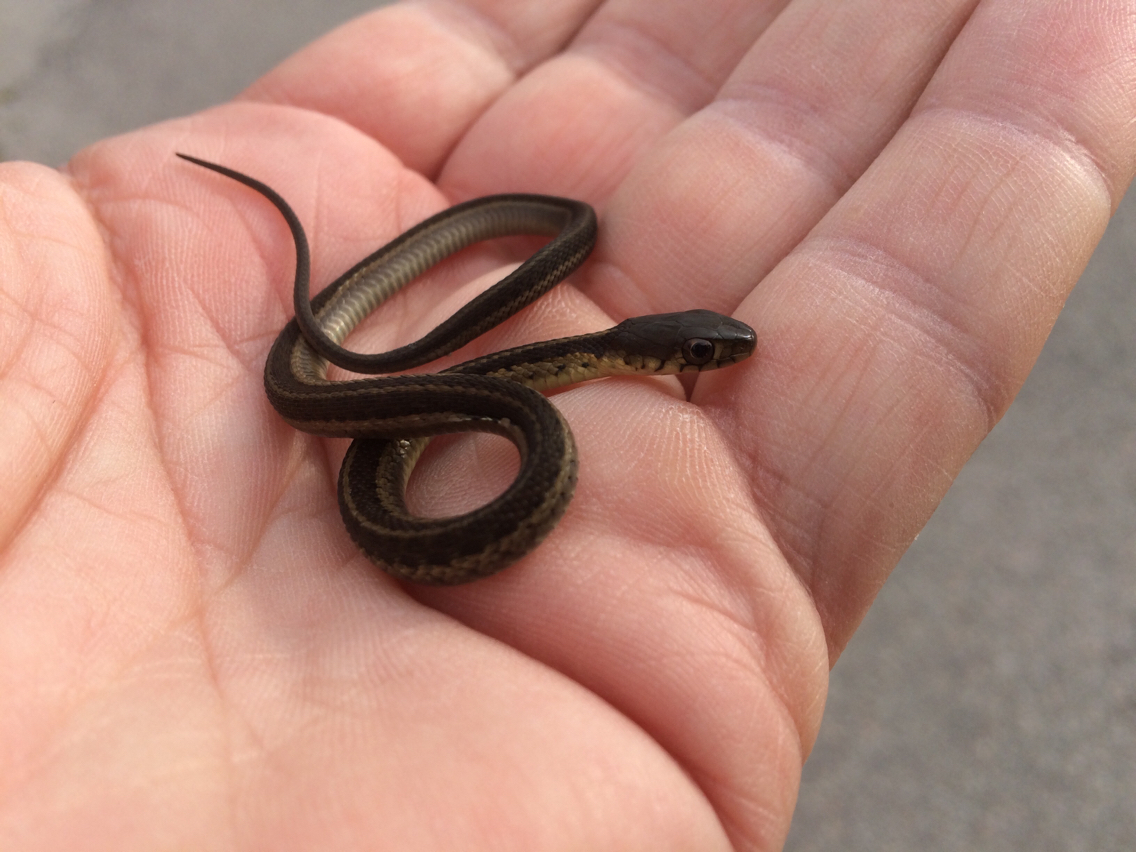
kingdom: Animalia
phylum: Chordata
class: Squamata
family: Colubridae
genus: Thamnophis
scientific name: Thamnophis sirtalis
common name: Common garter snake
